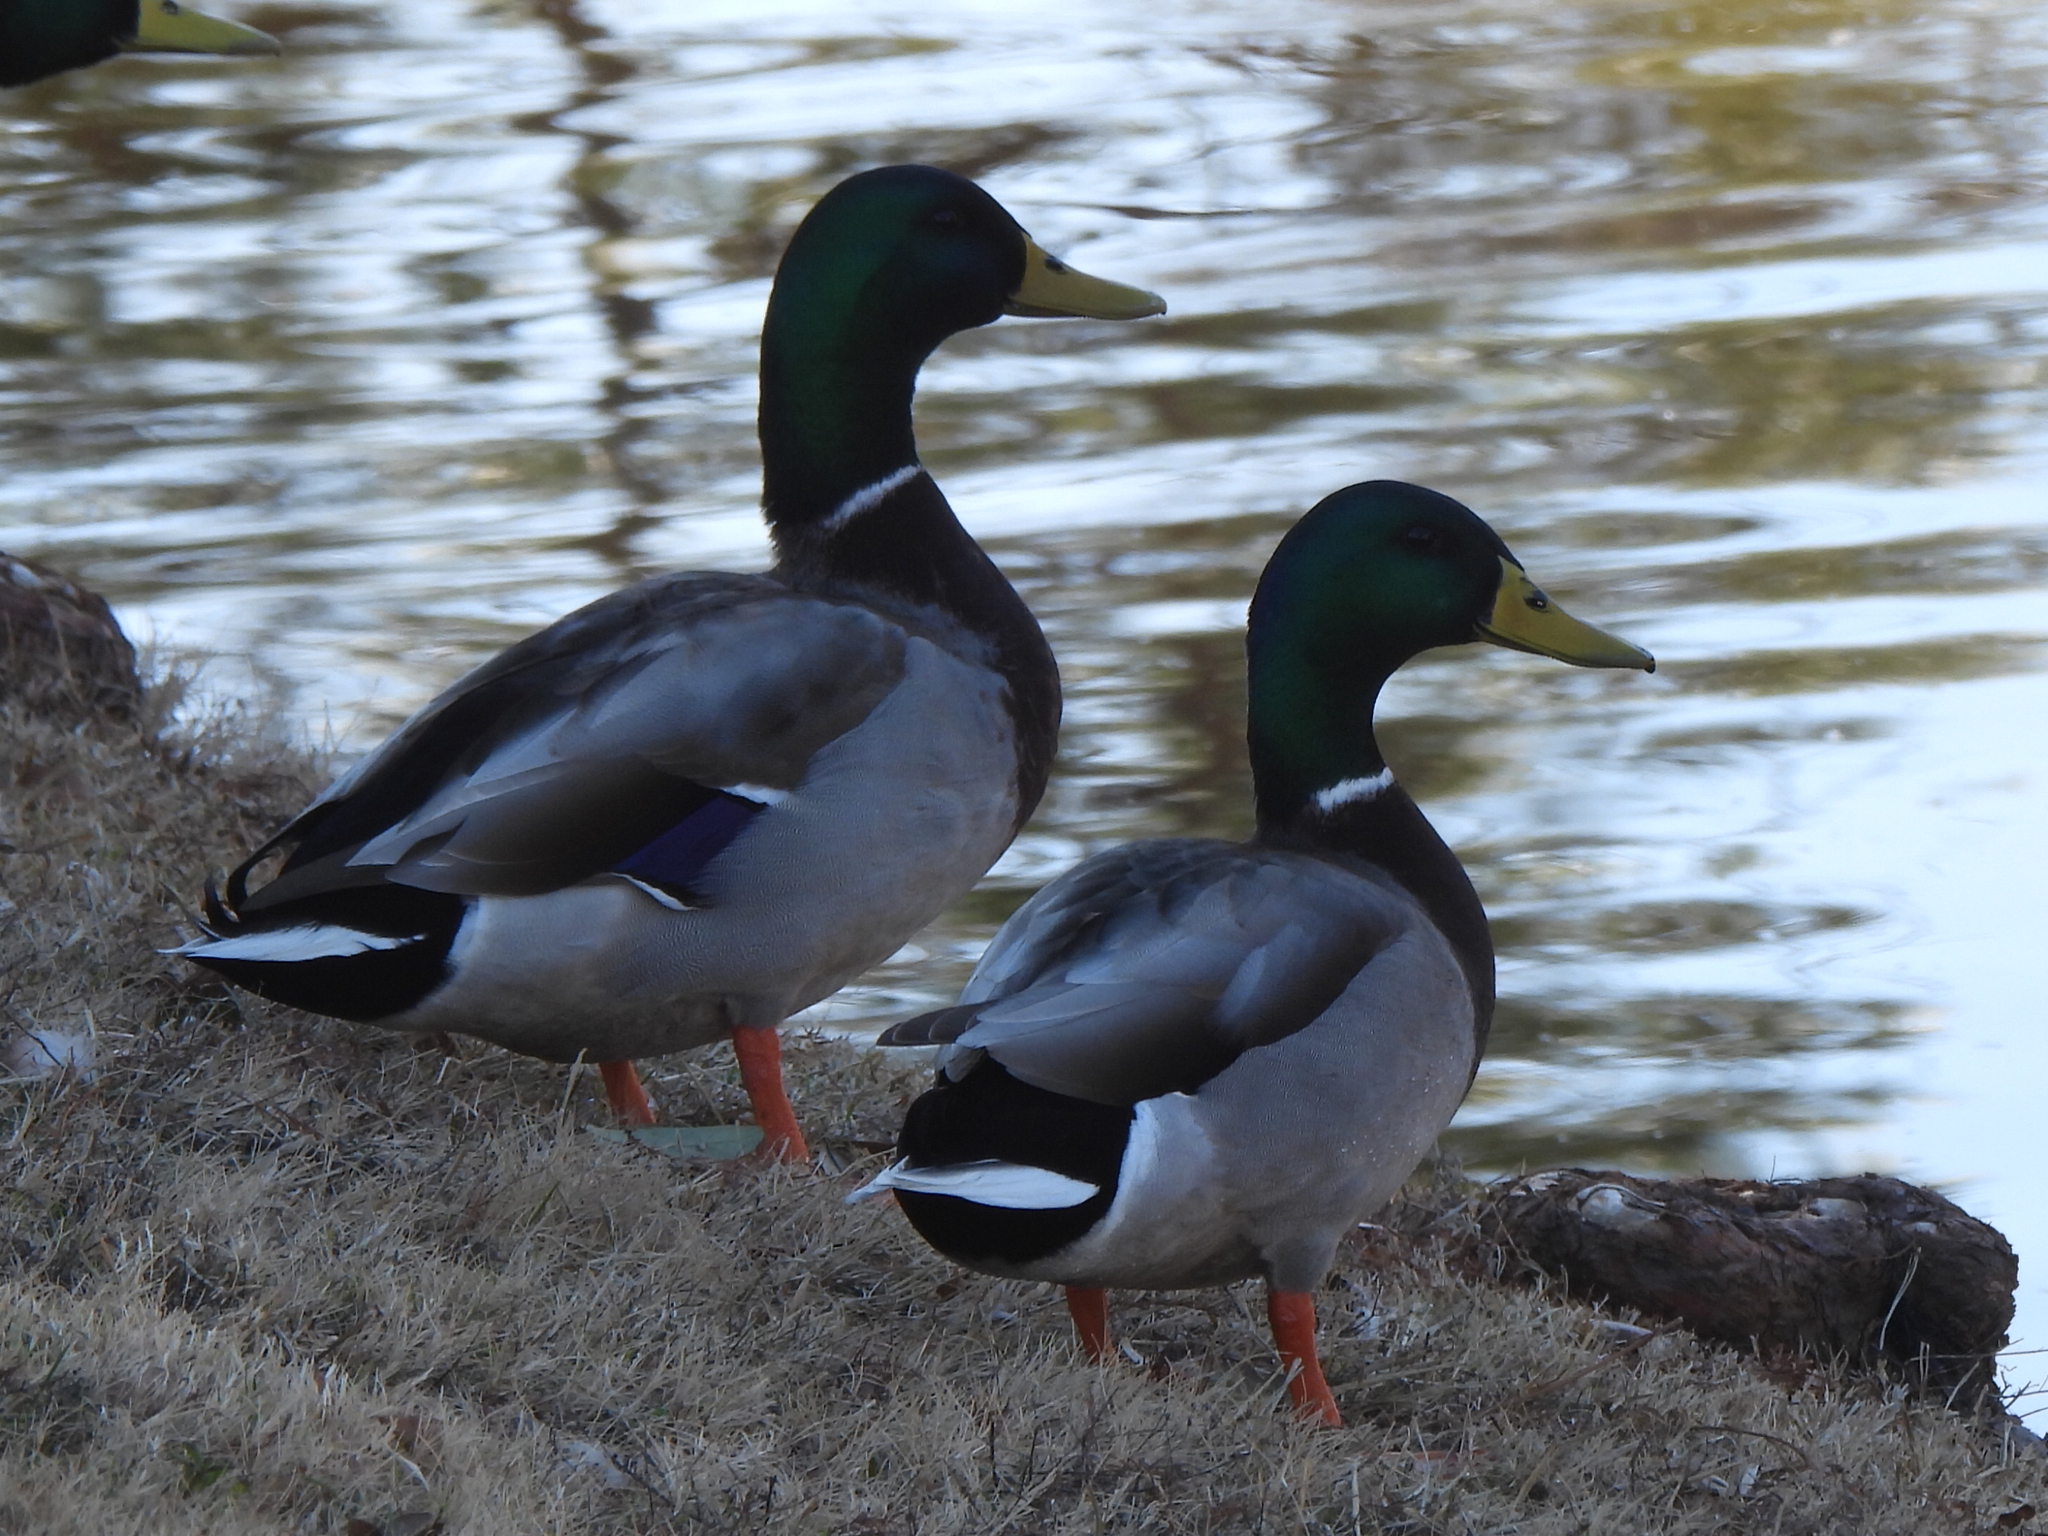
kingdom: Animalia
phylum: Chordata
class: Aves
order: Anseriformes
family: Anatidae
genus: Anas
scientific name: Anas platyrhynchos
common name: Mallard
